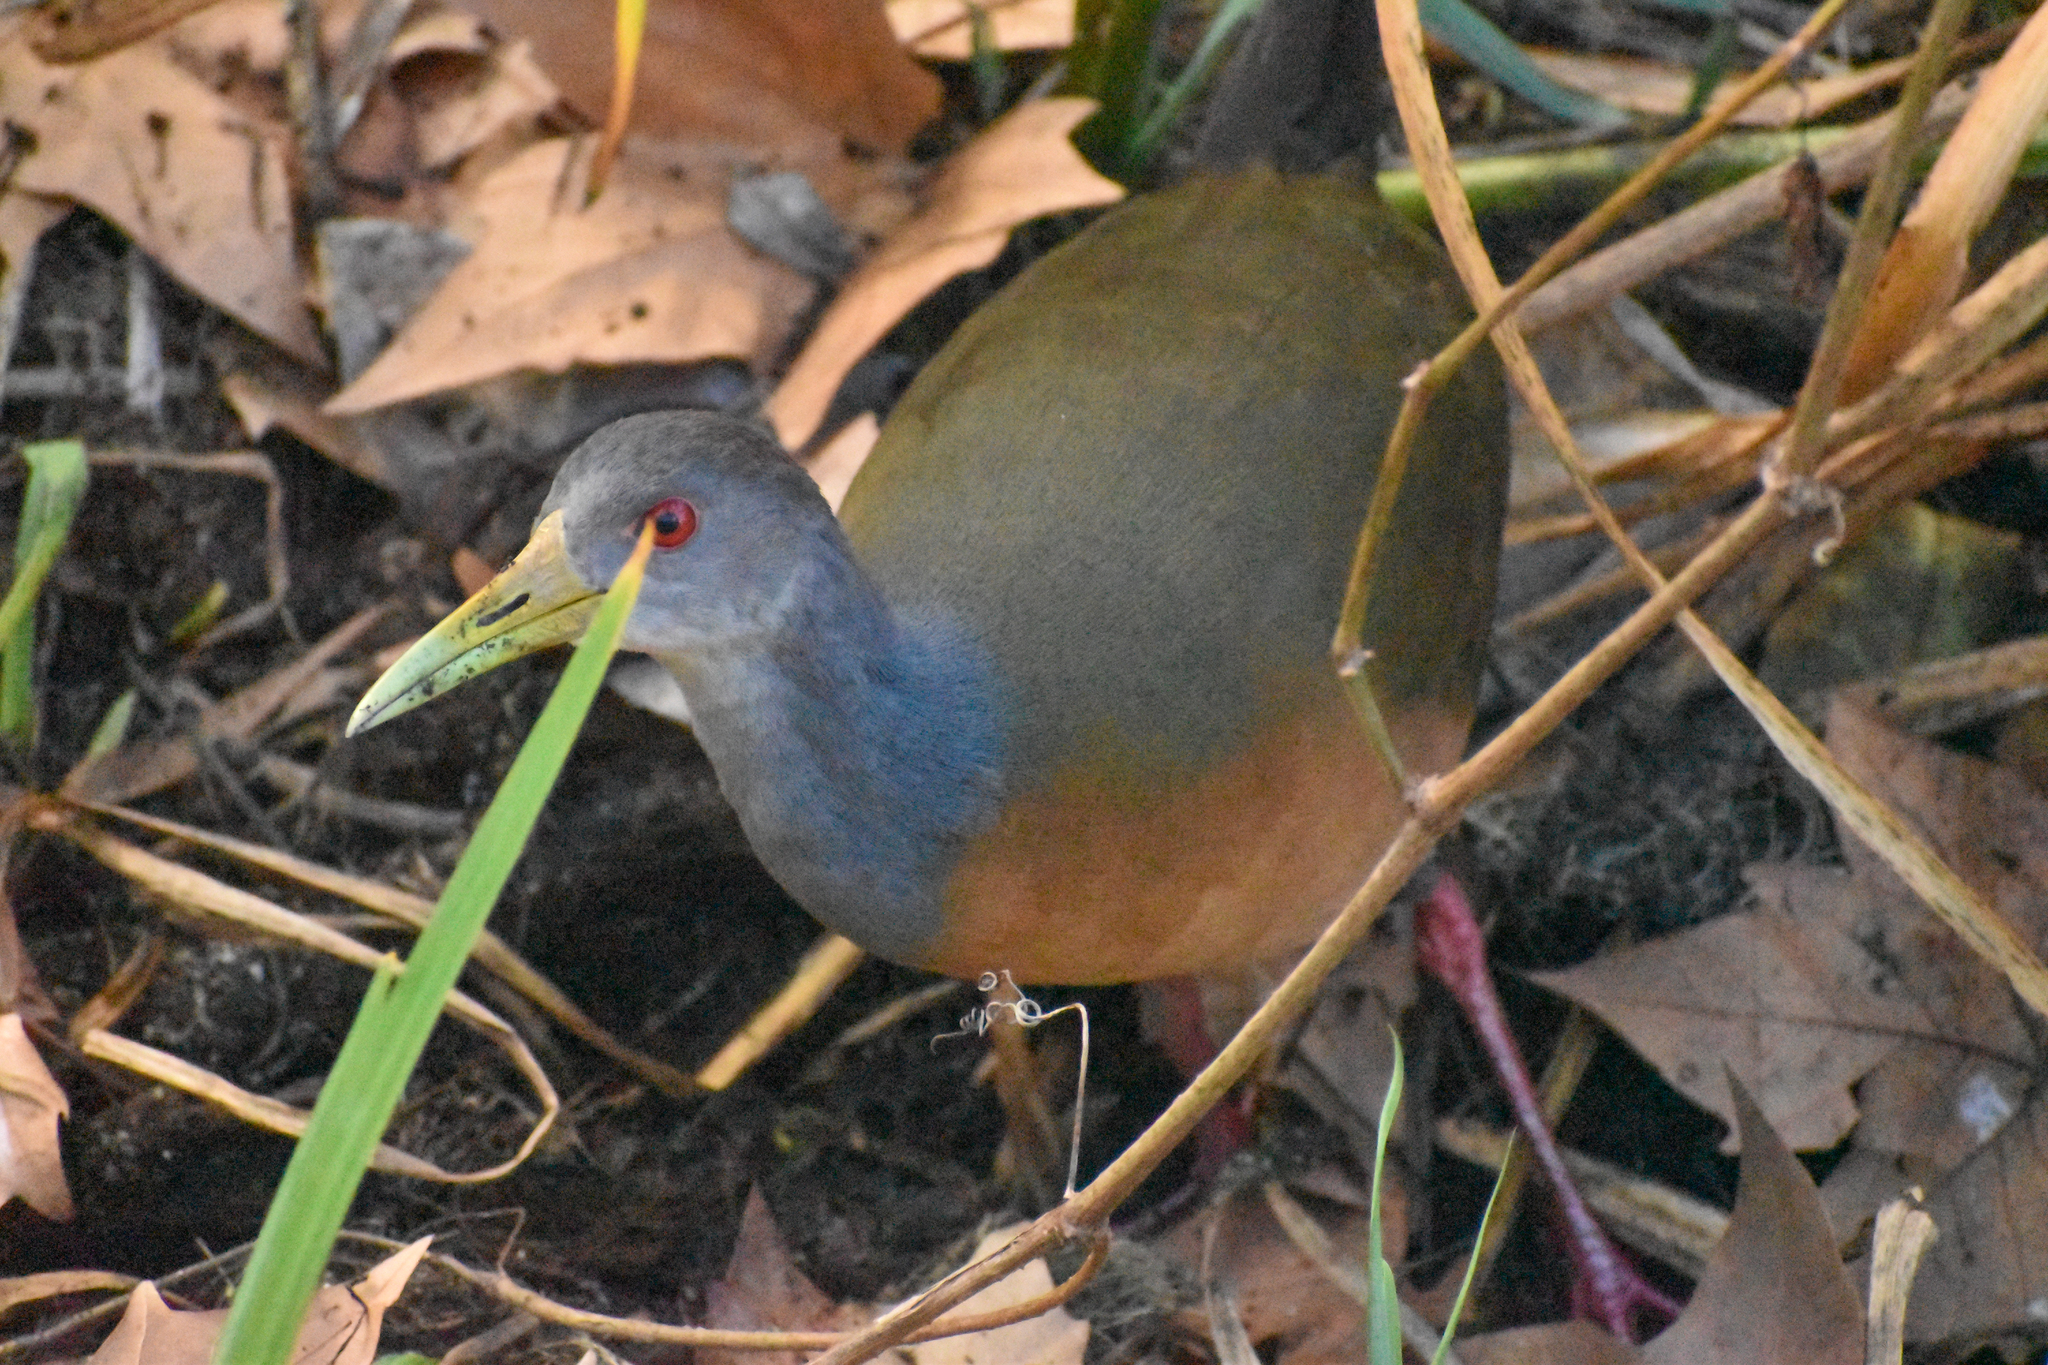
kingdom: Animalia
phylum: Chordata
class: Aves
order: Gruiformes
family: Rallidae
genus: Aramides
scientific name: Aramides cajanea
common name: Gray-necked wood-rail
